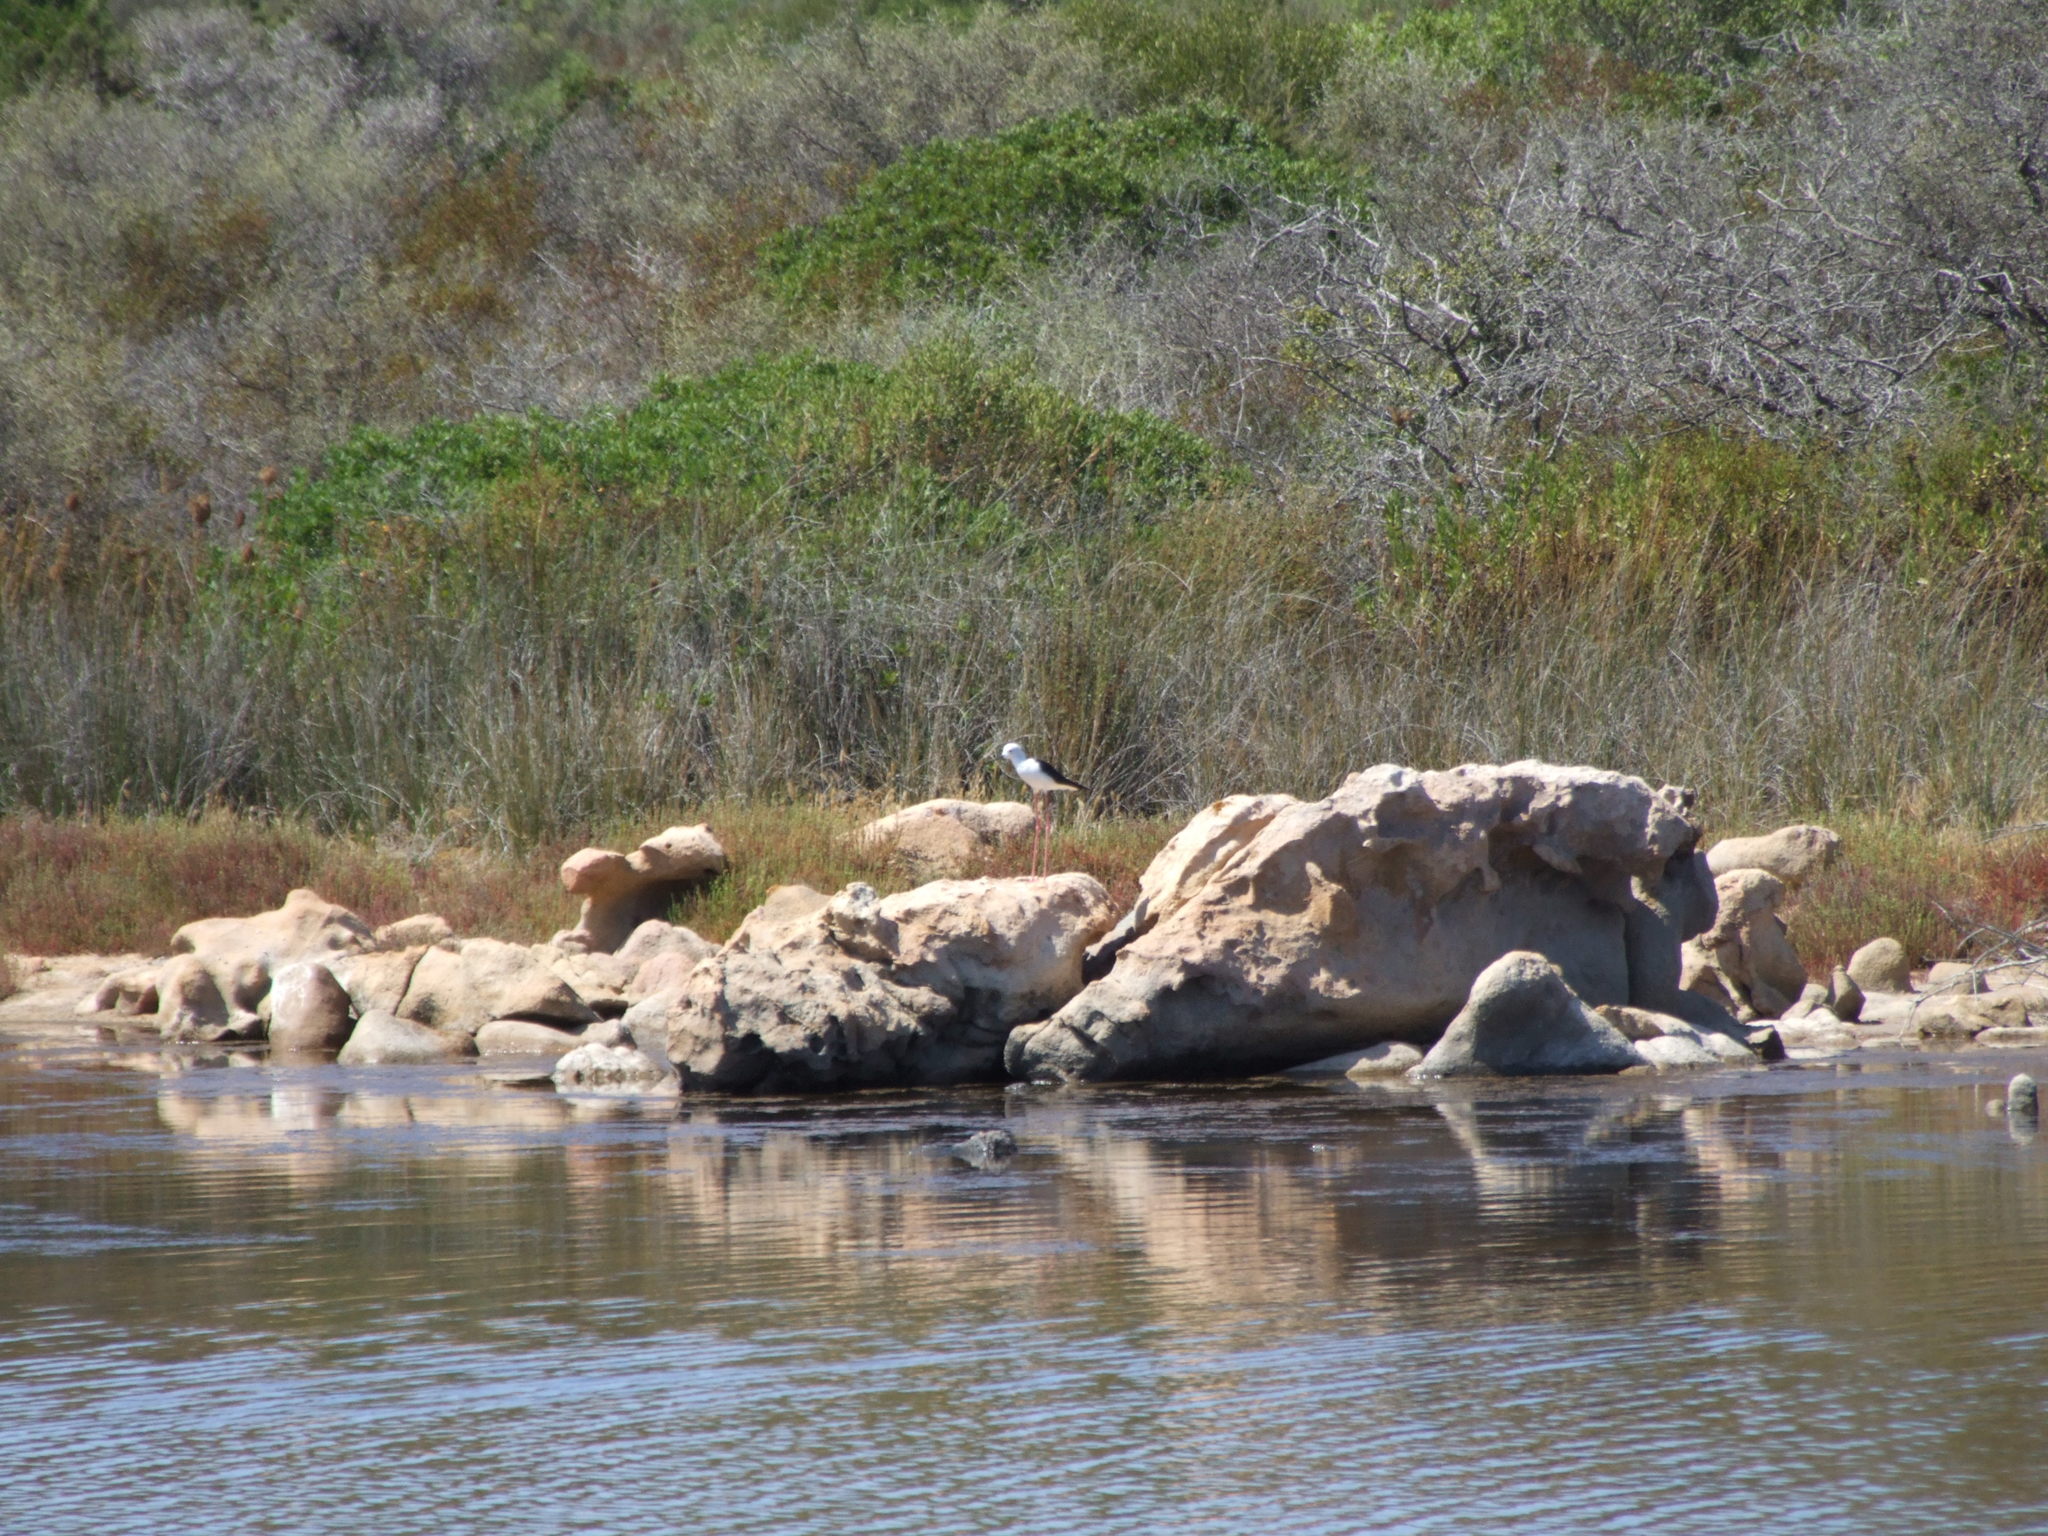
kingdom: Animalia
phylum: Chordata
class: Aves
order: Charadriiformes
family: Recurvirostridae
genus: Himantopus
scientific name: Himantopus himantopus
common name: Black-winged stilt
